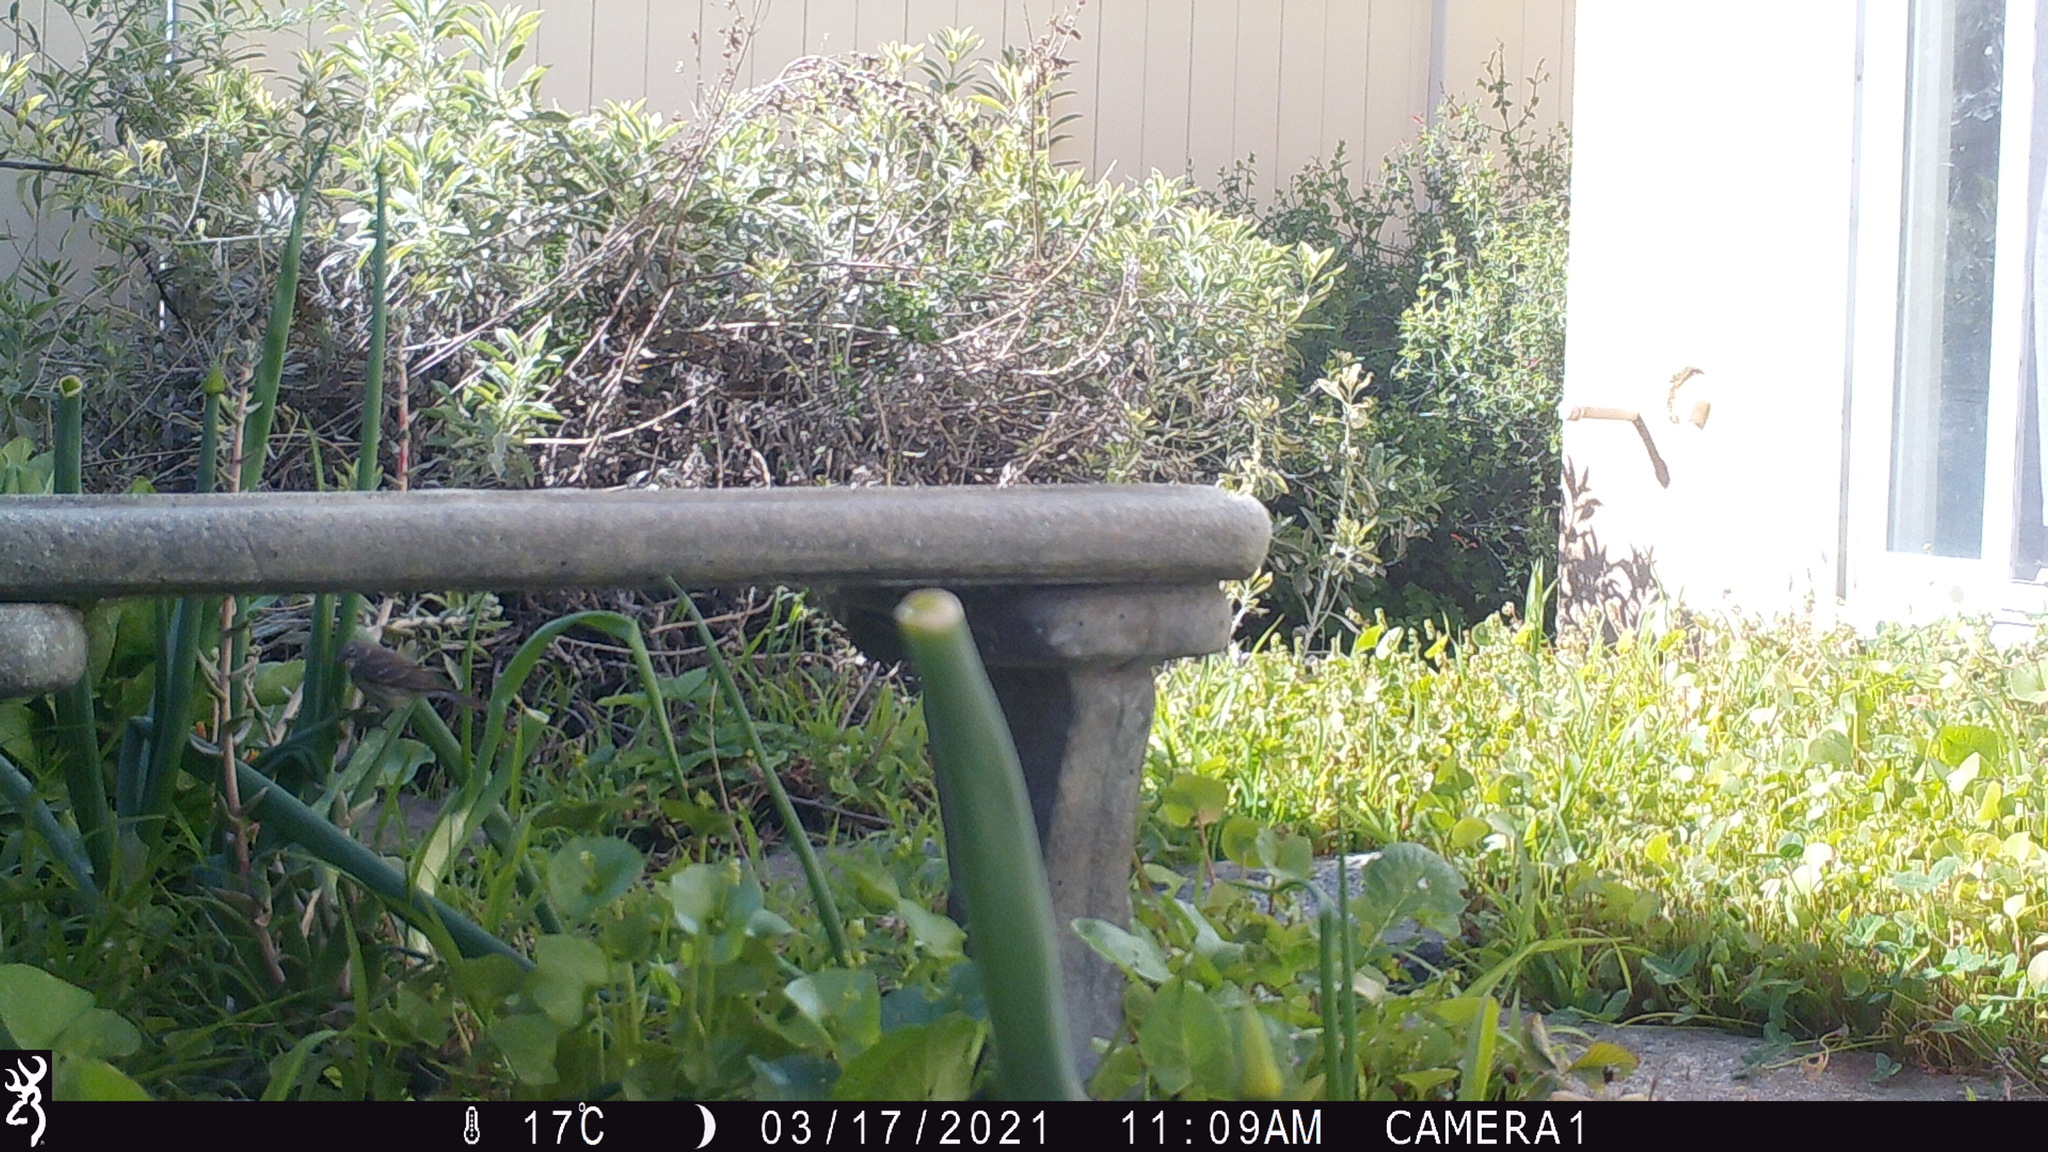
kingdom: Animalia
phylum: Chordata
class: Aves
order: Passeriformes
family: Parulidae
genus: Setophaga
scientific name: Setophaga coronata
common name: Myrtle warbler
